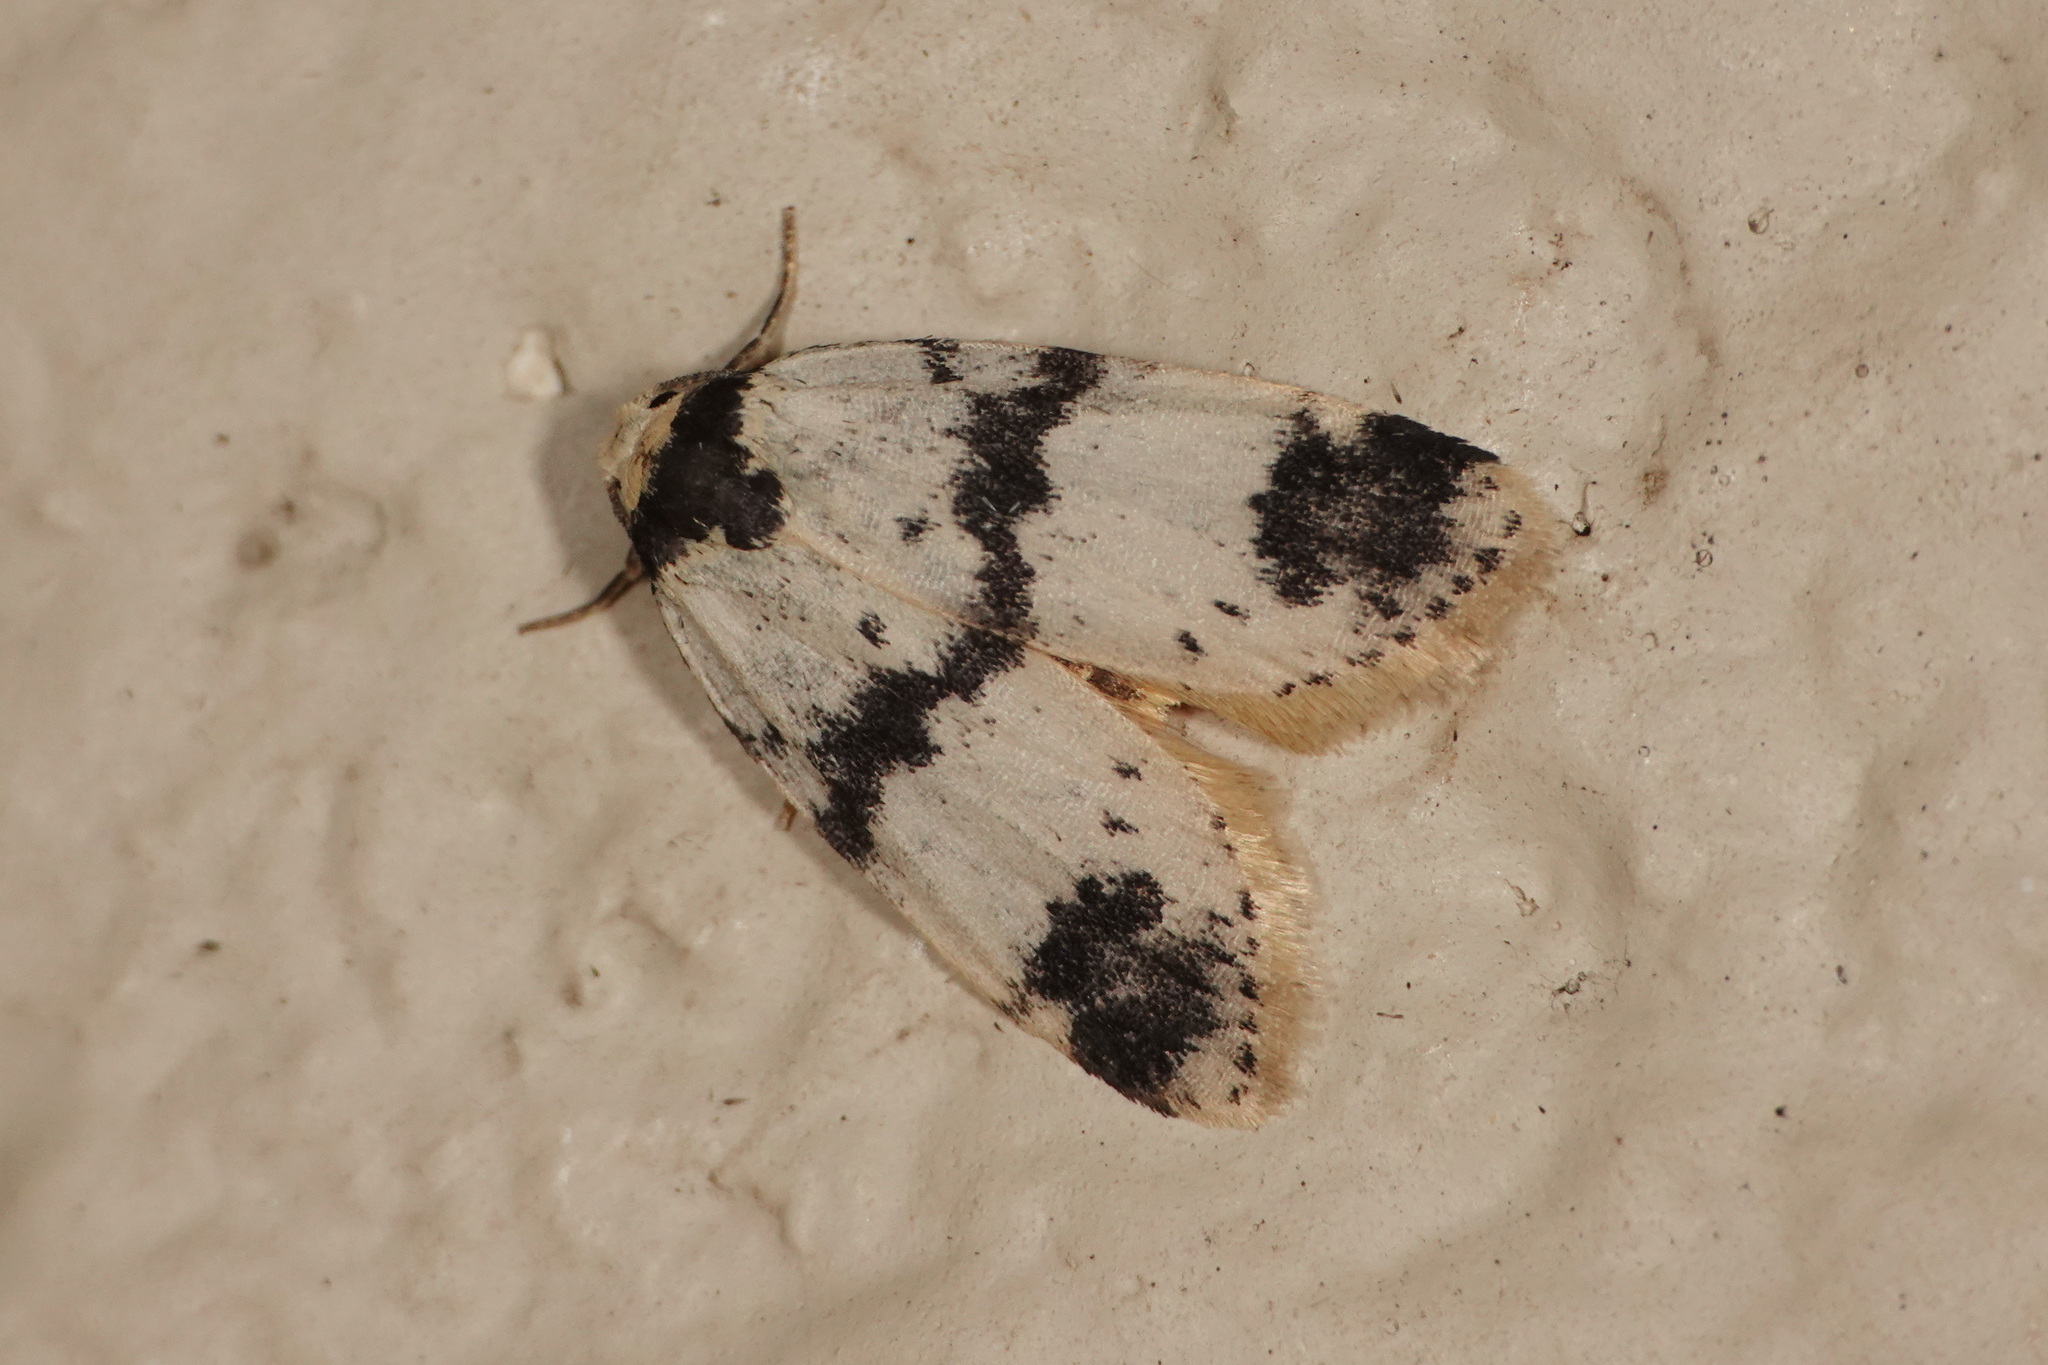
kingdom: Animalia
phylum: Arthropoda
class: Insecta
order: Lepidoptera
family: Erebidae
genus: Thallarcha
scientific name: Thallarcha sparsana
